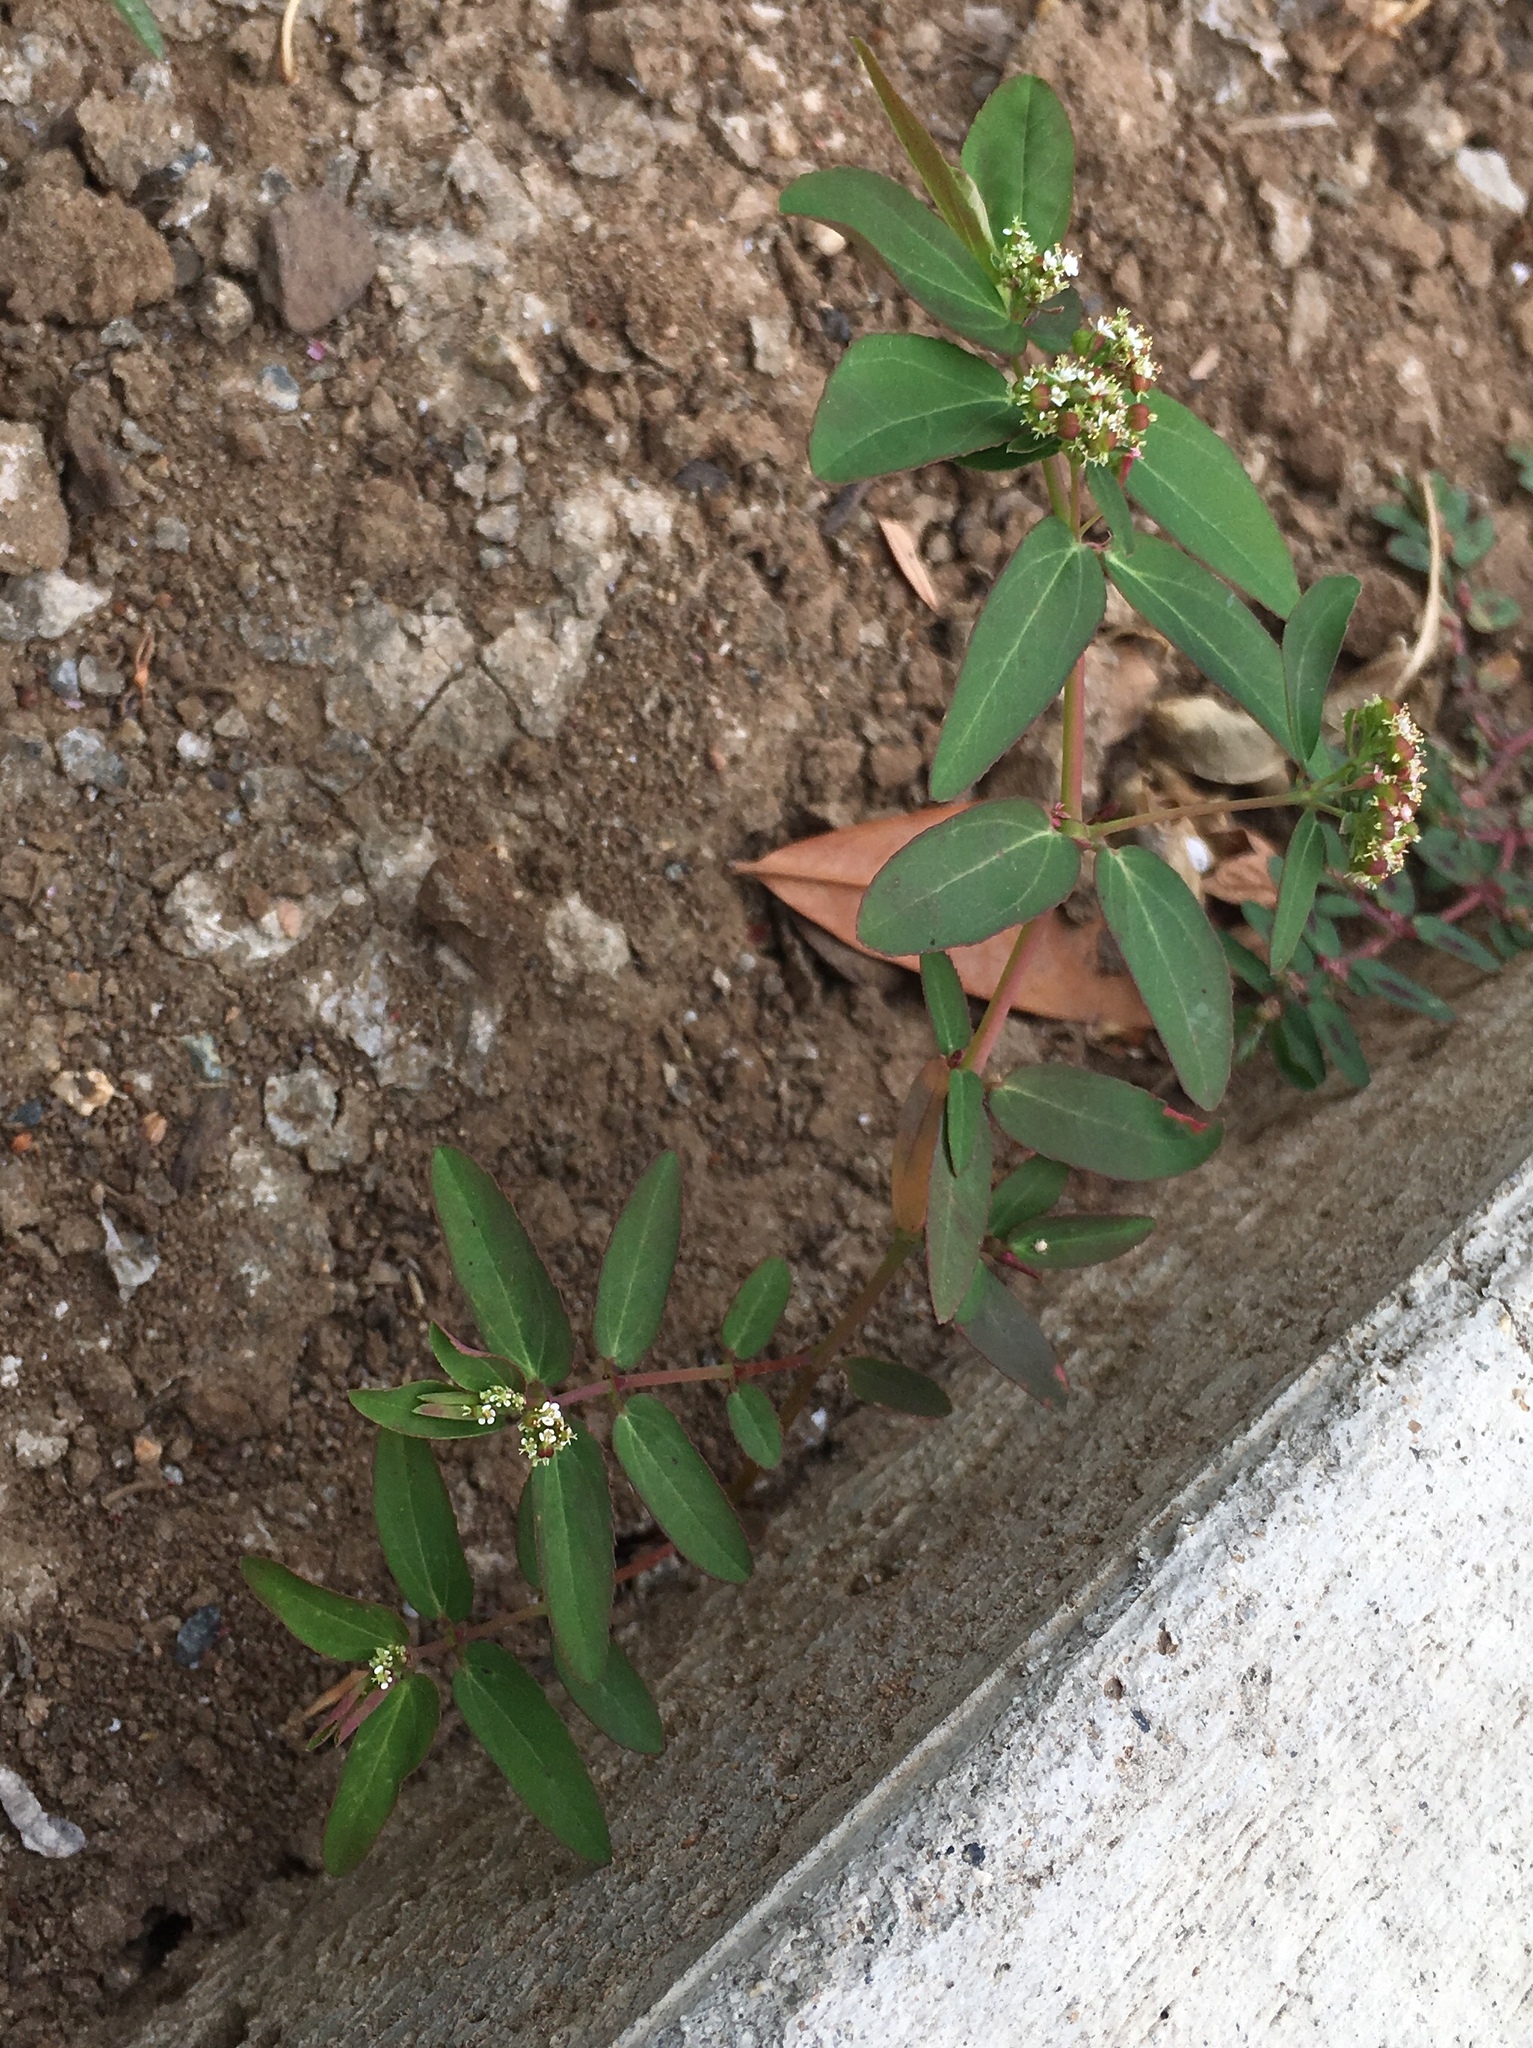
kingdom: Plantae
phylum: Tracheophyta
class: Magnoliopsida
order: Malpighiales
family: Euphorbiaceae
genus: Euphorbia
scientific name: Euphorbia hypericifolia
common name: Graceful sandmat
